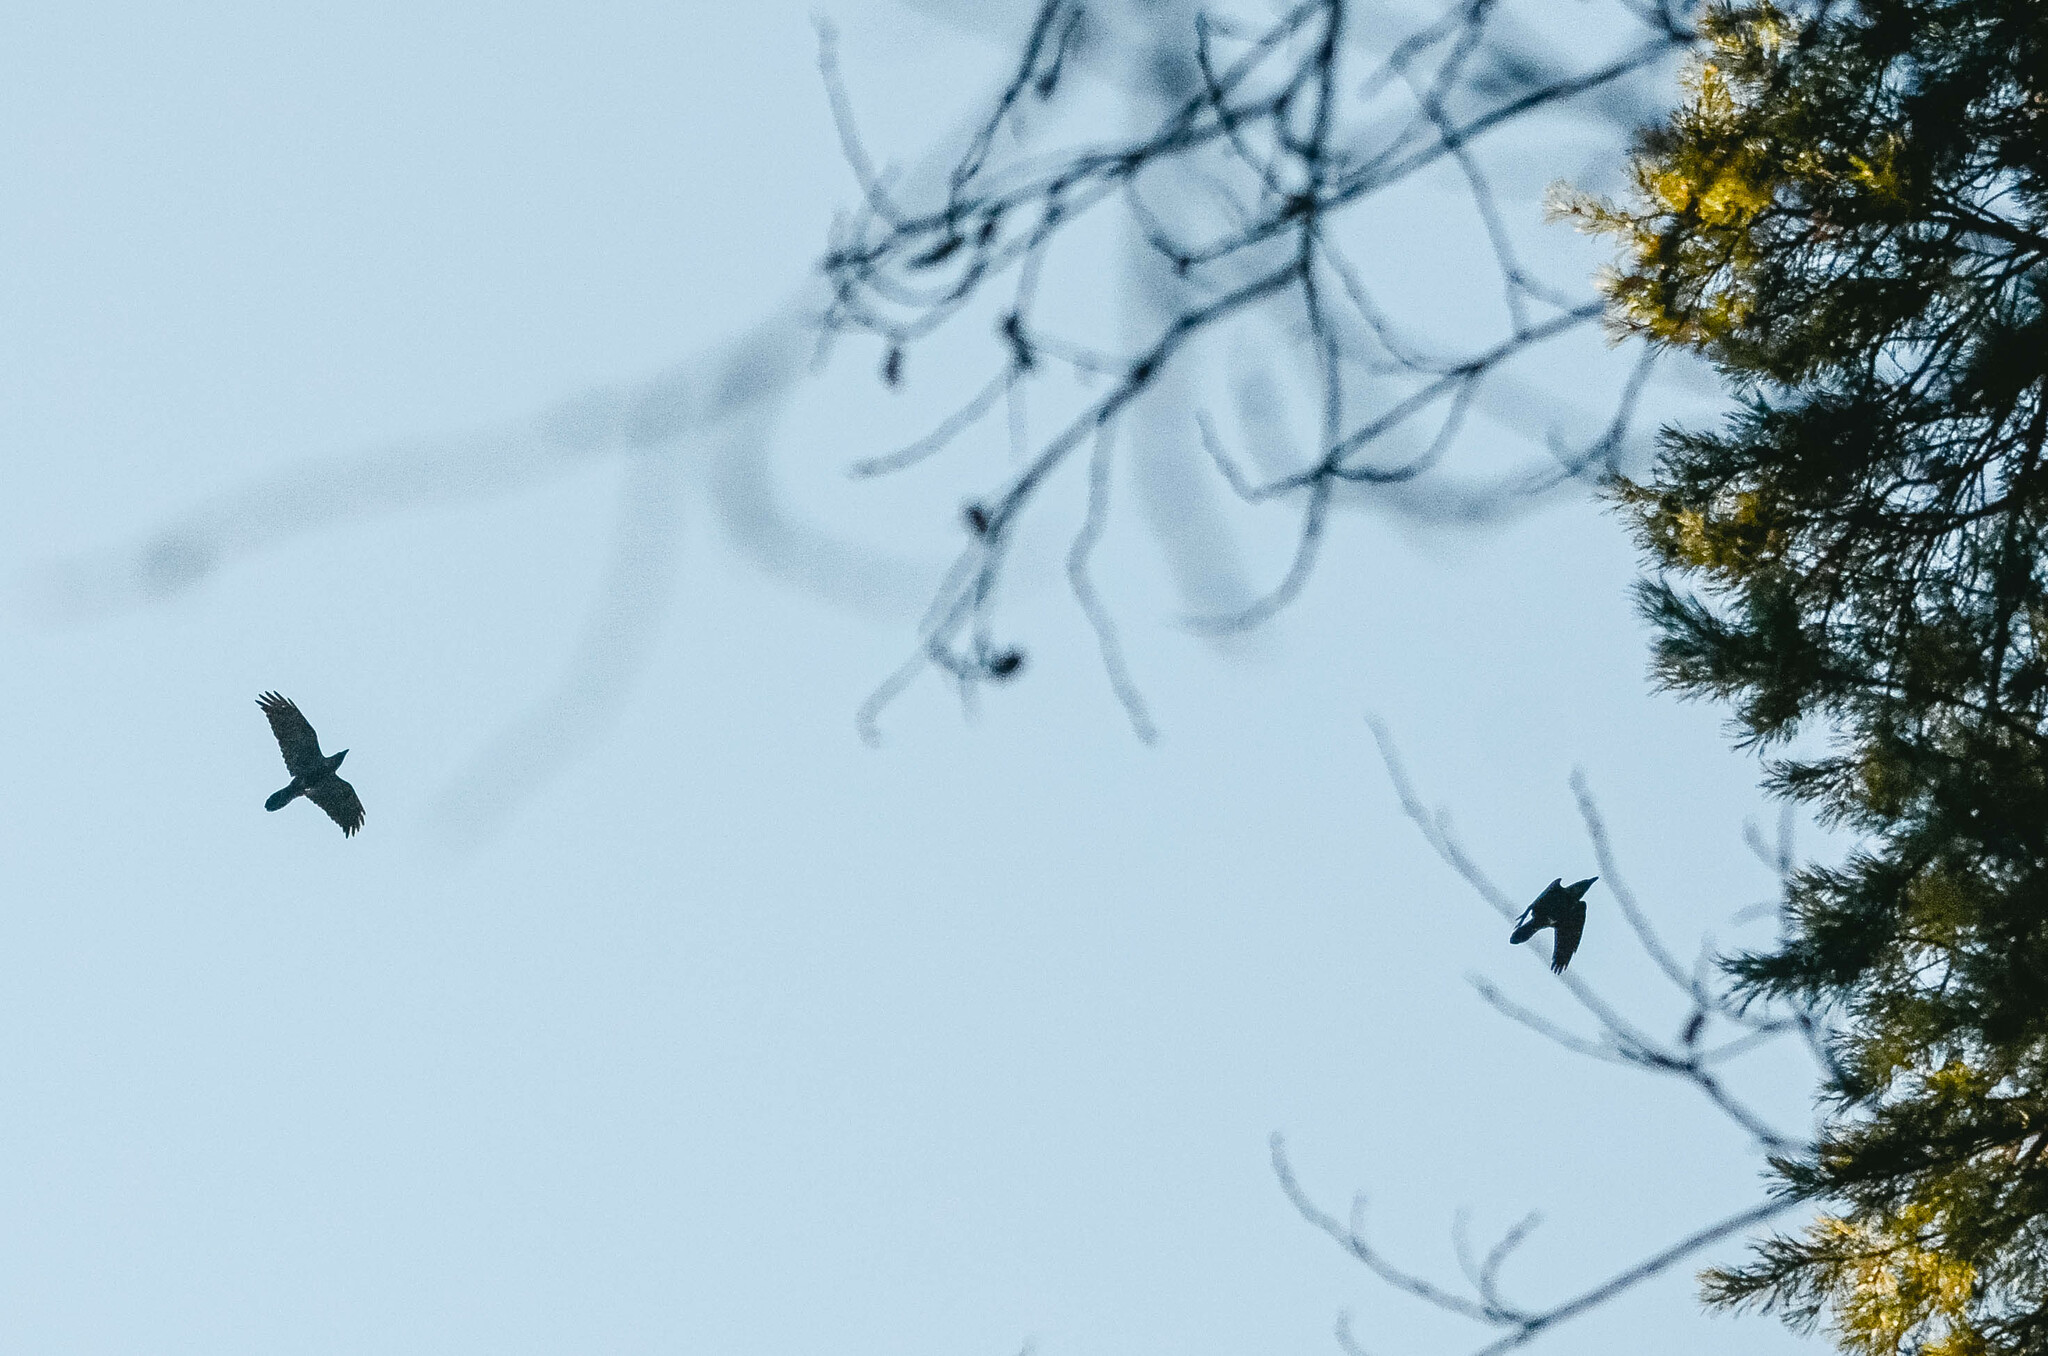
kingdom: Animalia
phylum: Chordata
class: Aves
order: Passeriformes
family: Corvidae
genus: Corvus
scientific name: Corvus corax
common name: Common raven
